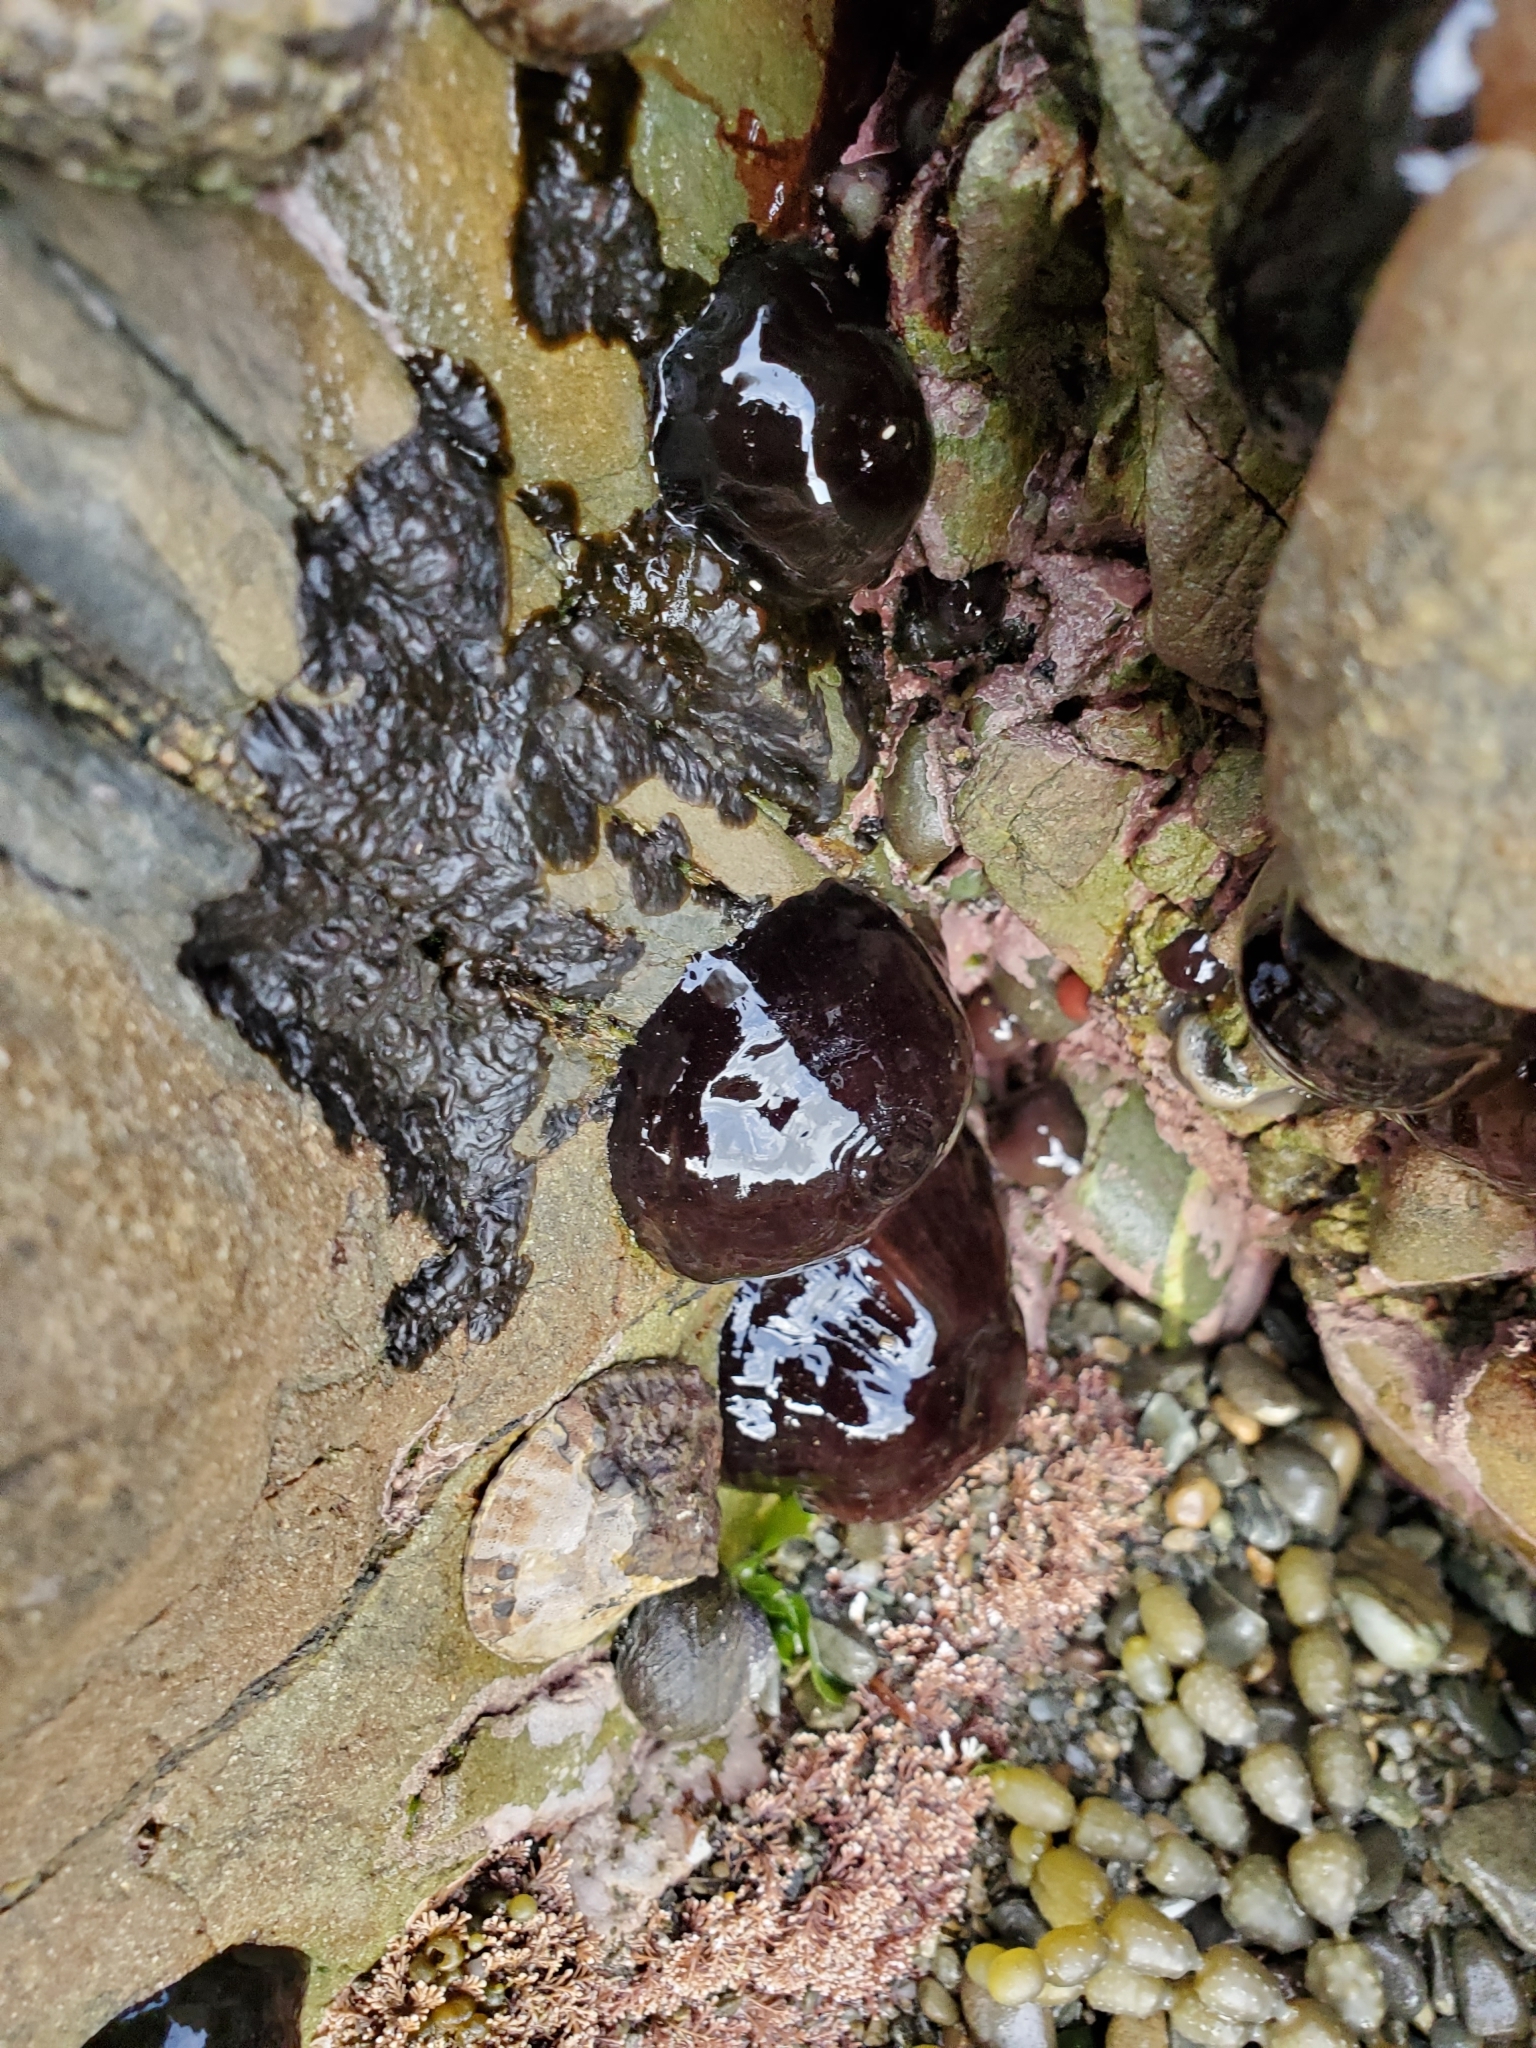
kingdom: Animalia
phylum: Cnidaria
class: Anthozoa
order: Actiniaria
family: Actiniidae
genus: Actinia
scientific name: Actinia tenebrosa
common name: Waratah anemone
